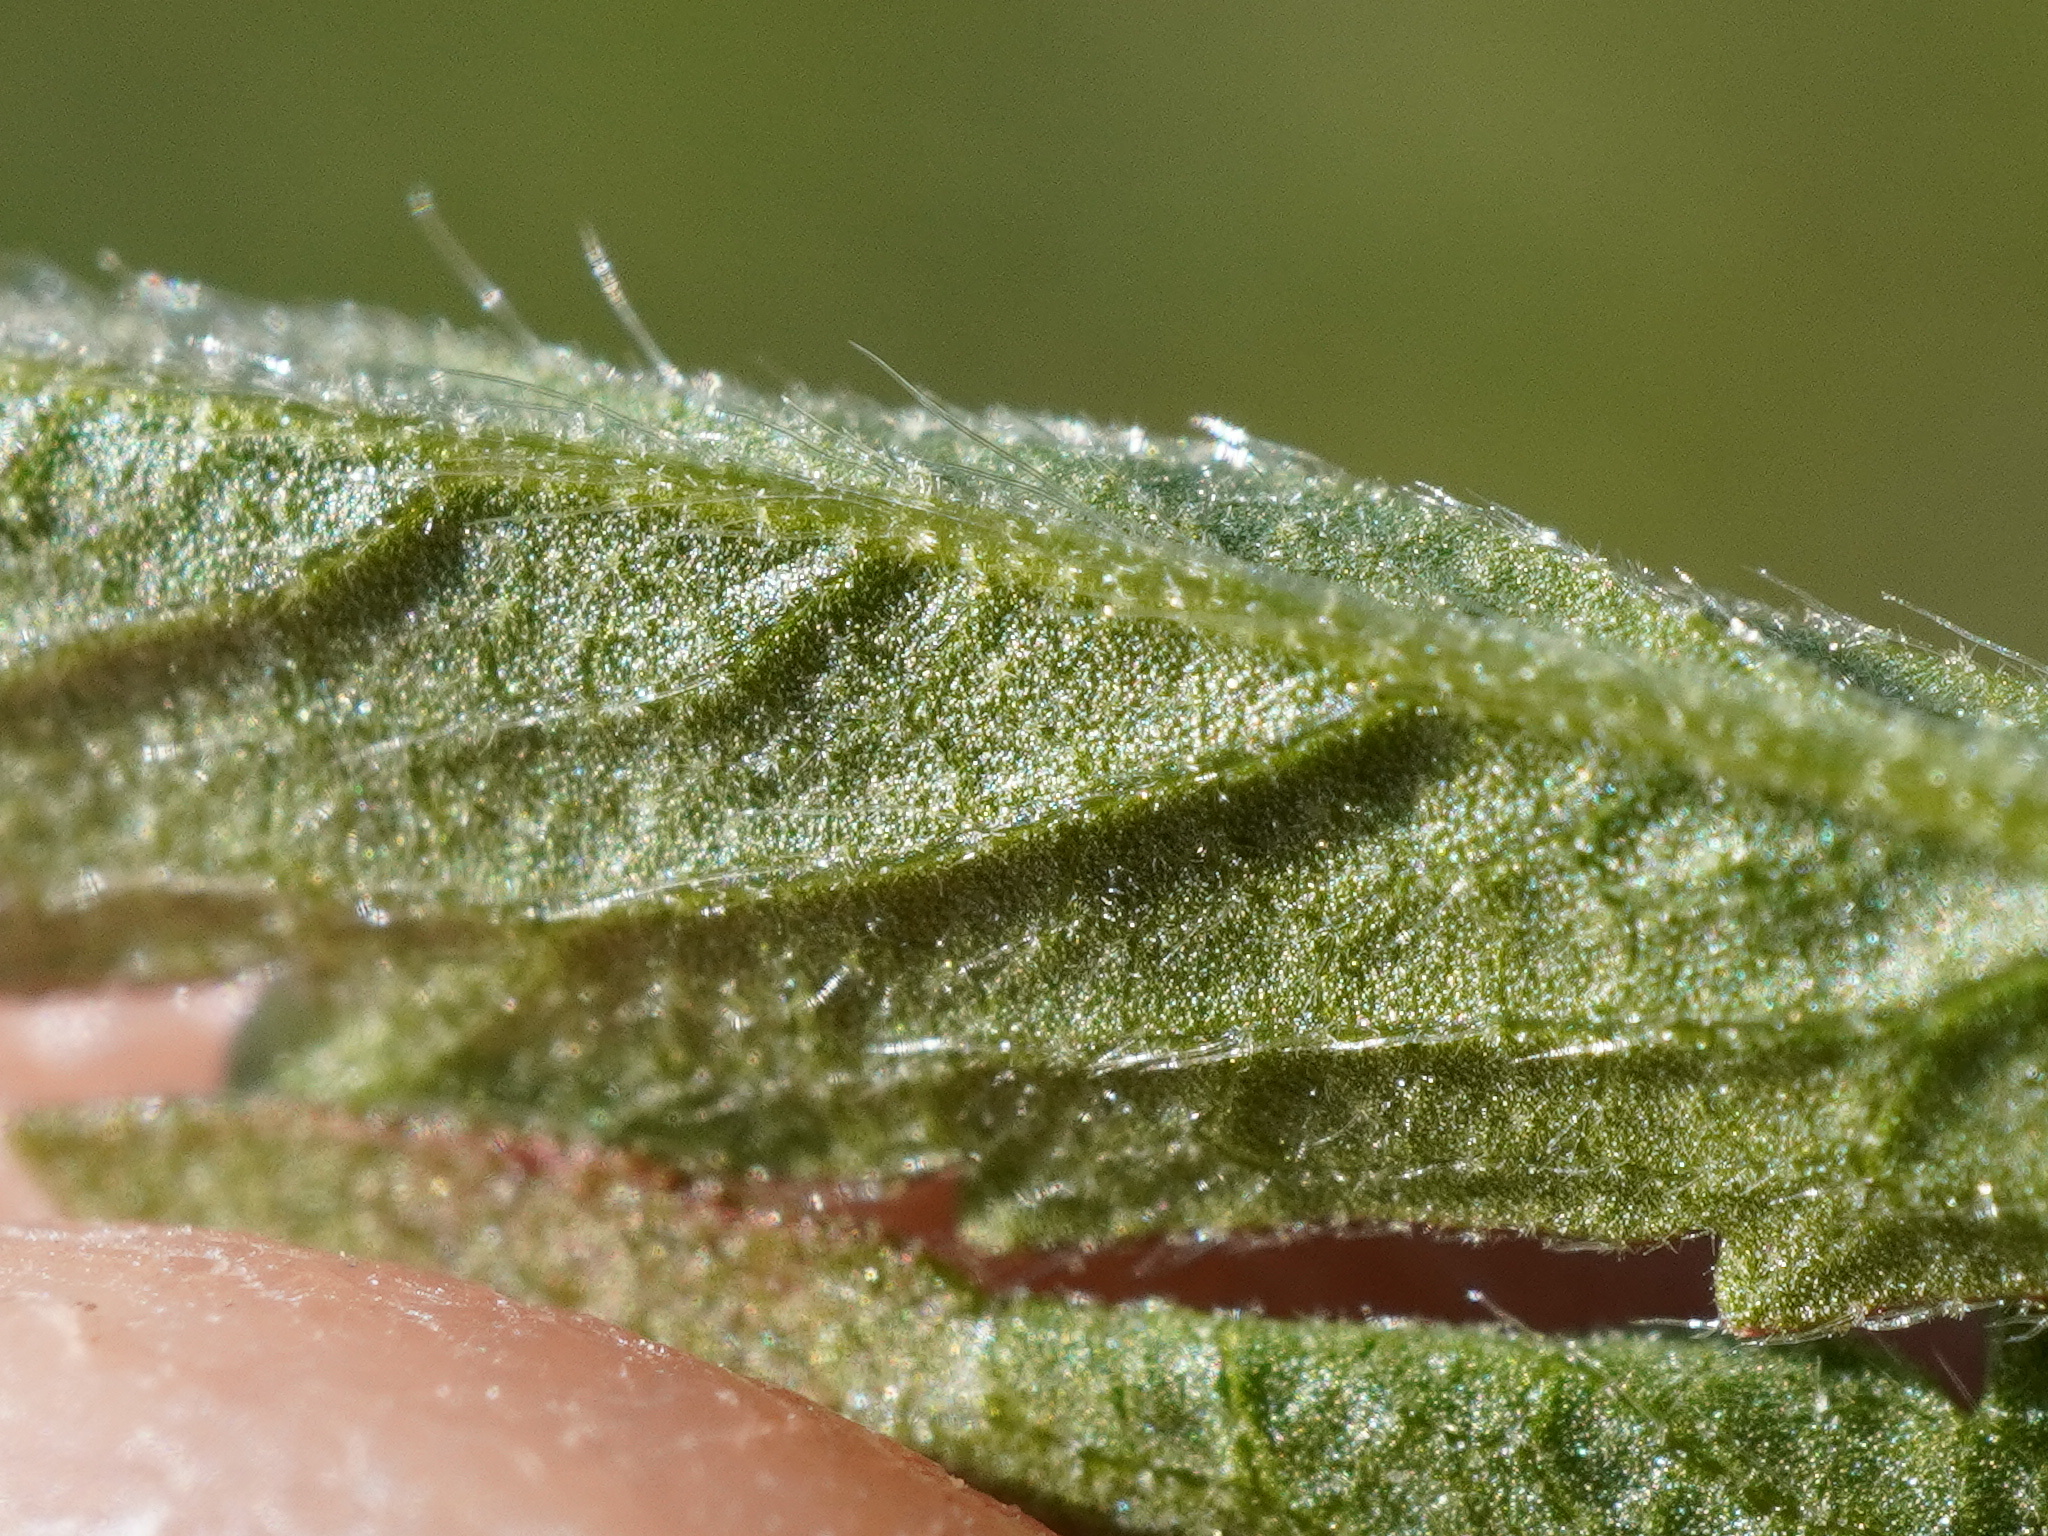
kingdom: Plantae
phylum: Tracheophyta
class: Magnoliopsida
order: Rosales
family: Rosaceae
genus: Potentilla
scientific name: Potentilla pusilla
